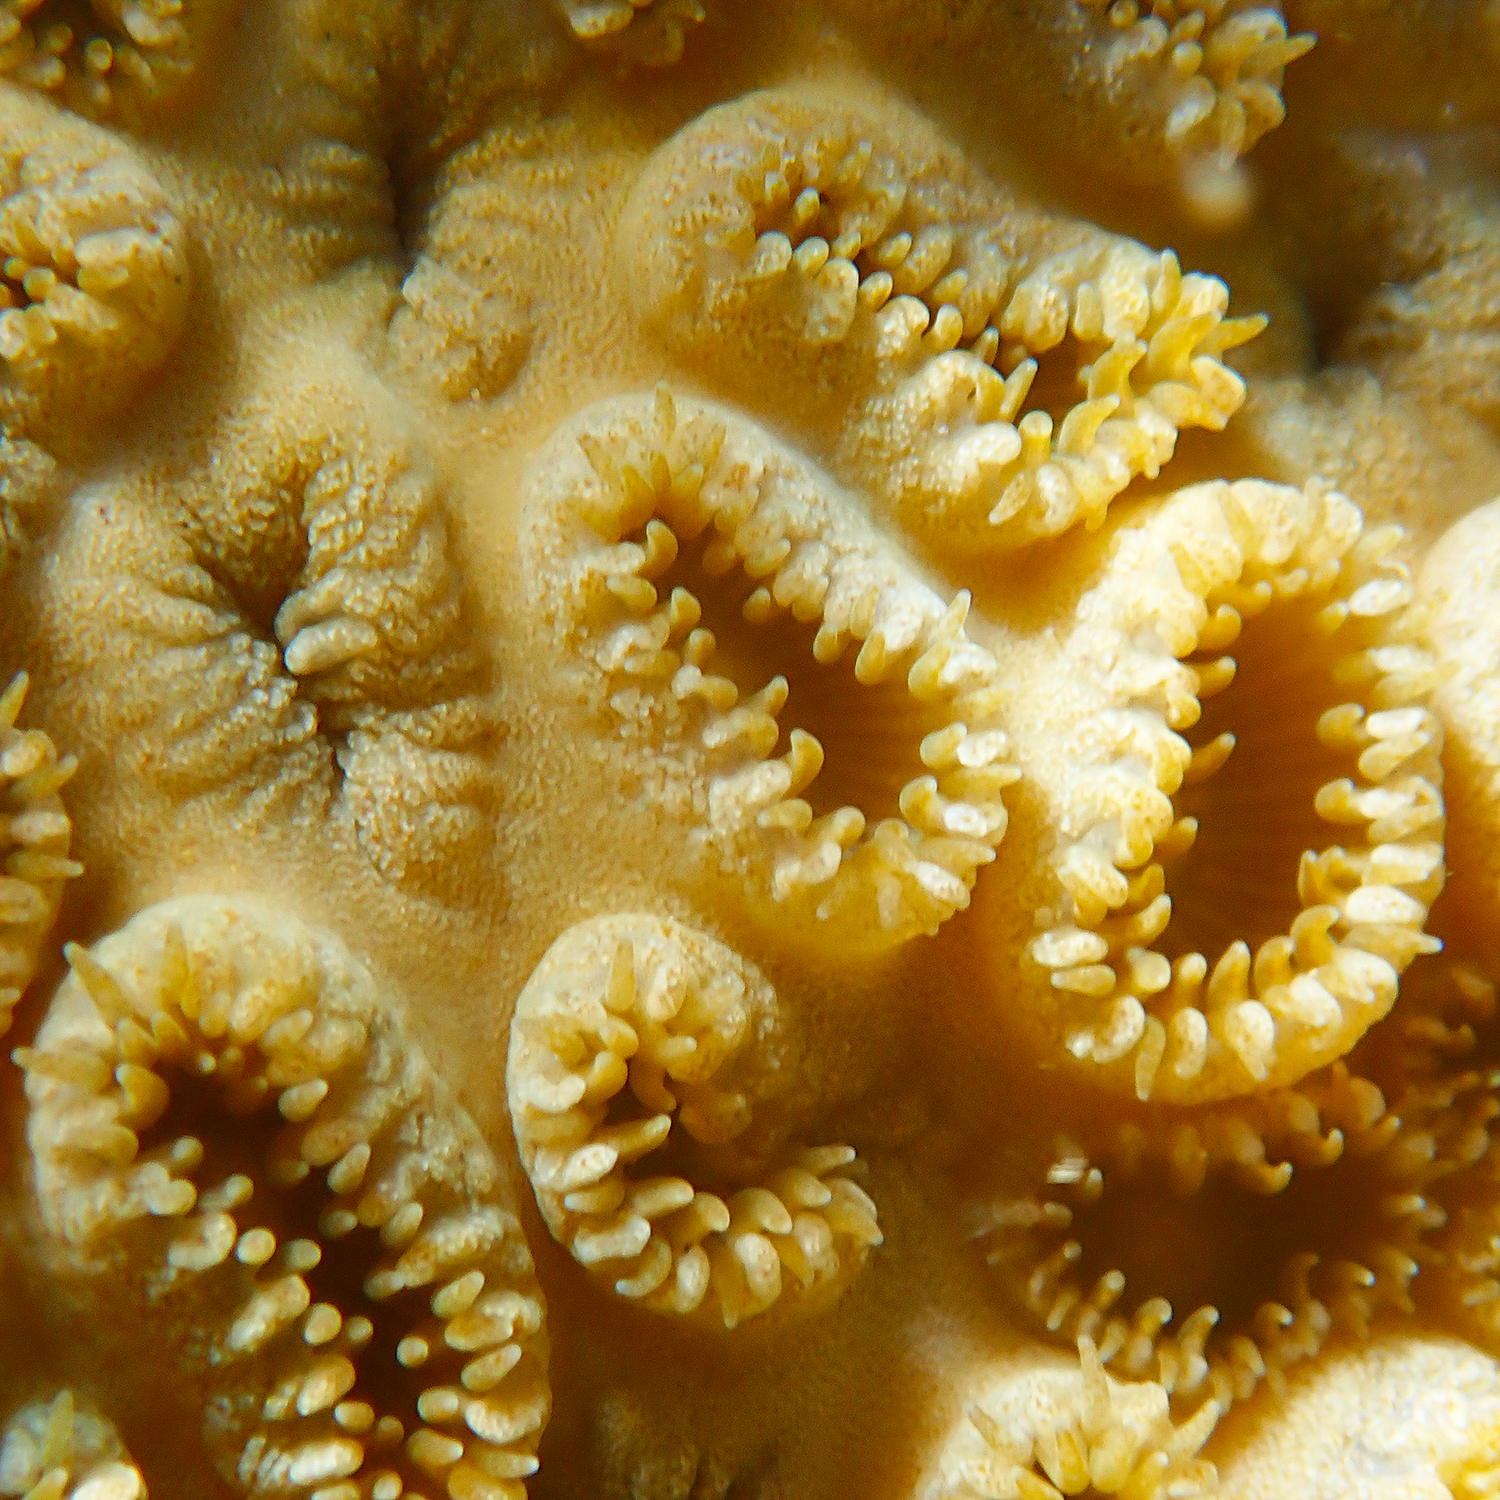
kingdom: Animalia
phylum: Cnidaria
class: Anthozoa
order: Zoantharia
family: Sphenopidae
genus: Palythoa
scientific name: Palythoa tuberculosa
